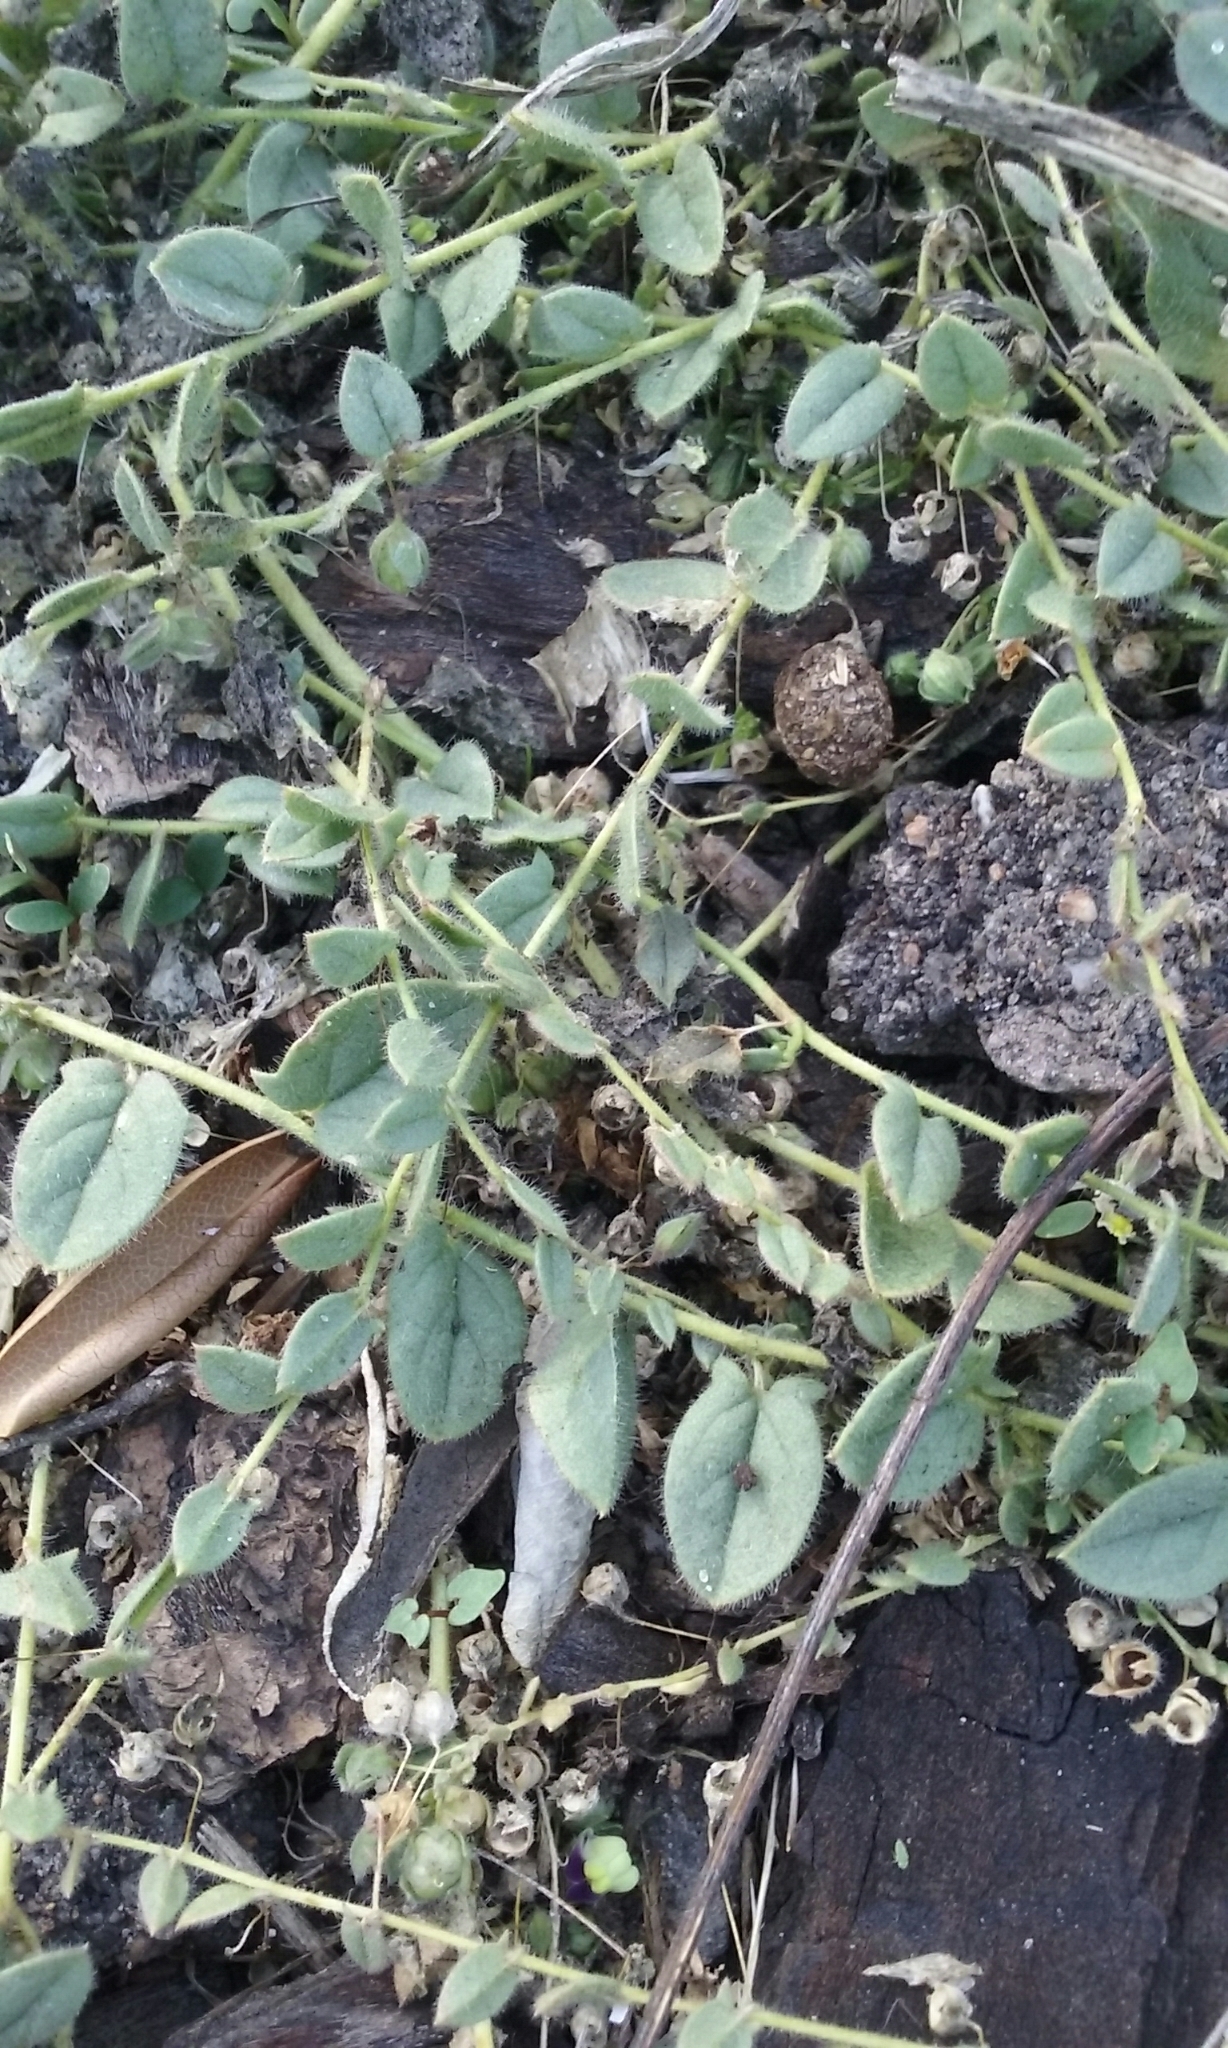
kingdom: Plantae
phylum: Tracheophyta
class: Magnoliopsida
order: Lamiales
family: Plantaginaceae
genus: Kickxia
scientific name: Kickxia elatine
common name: Sharp-leaved fluellen
